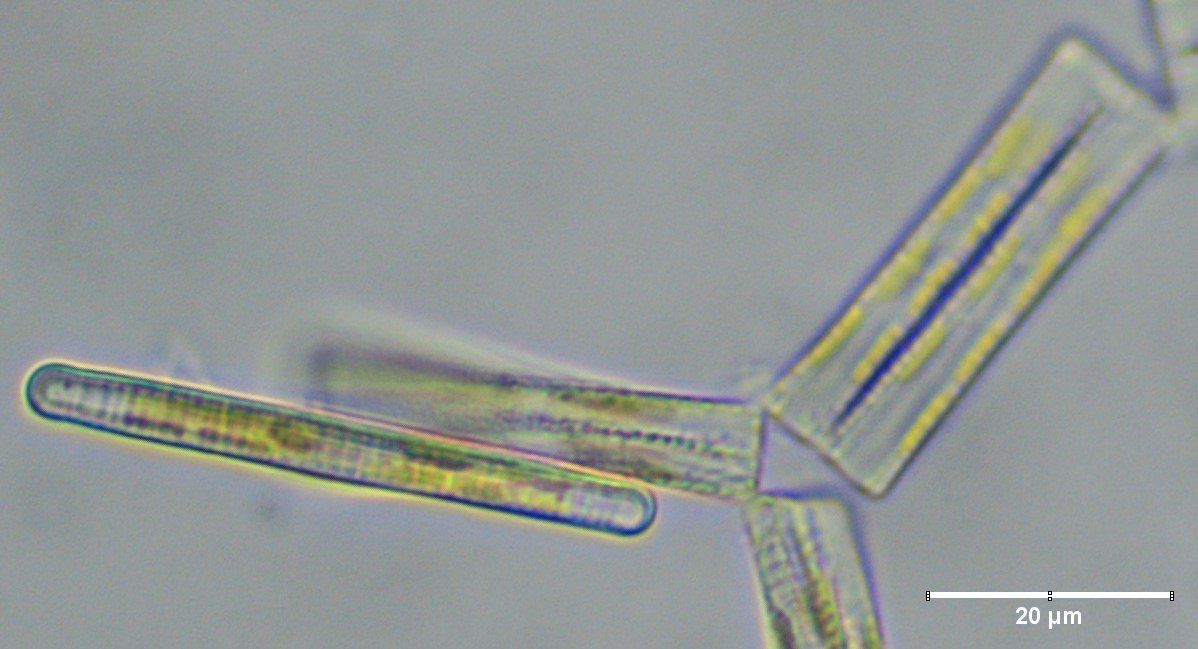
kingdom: Chromista
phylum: Ochrophyta
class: Bacillariophyceae
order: Fragilariales
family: Fragilariaceae
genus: Diatoma
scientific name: Diatoma tenuis
